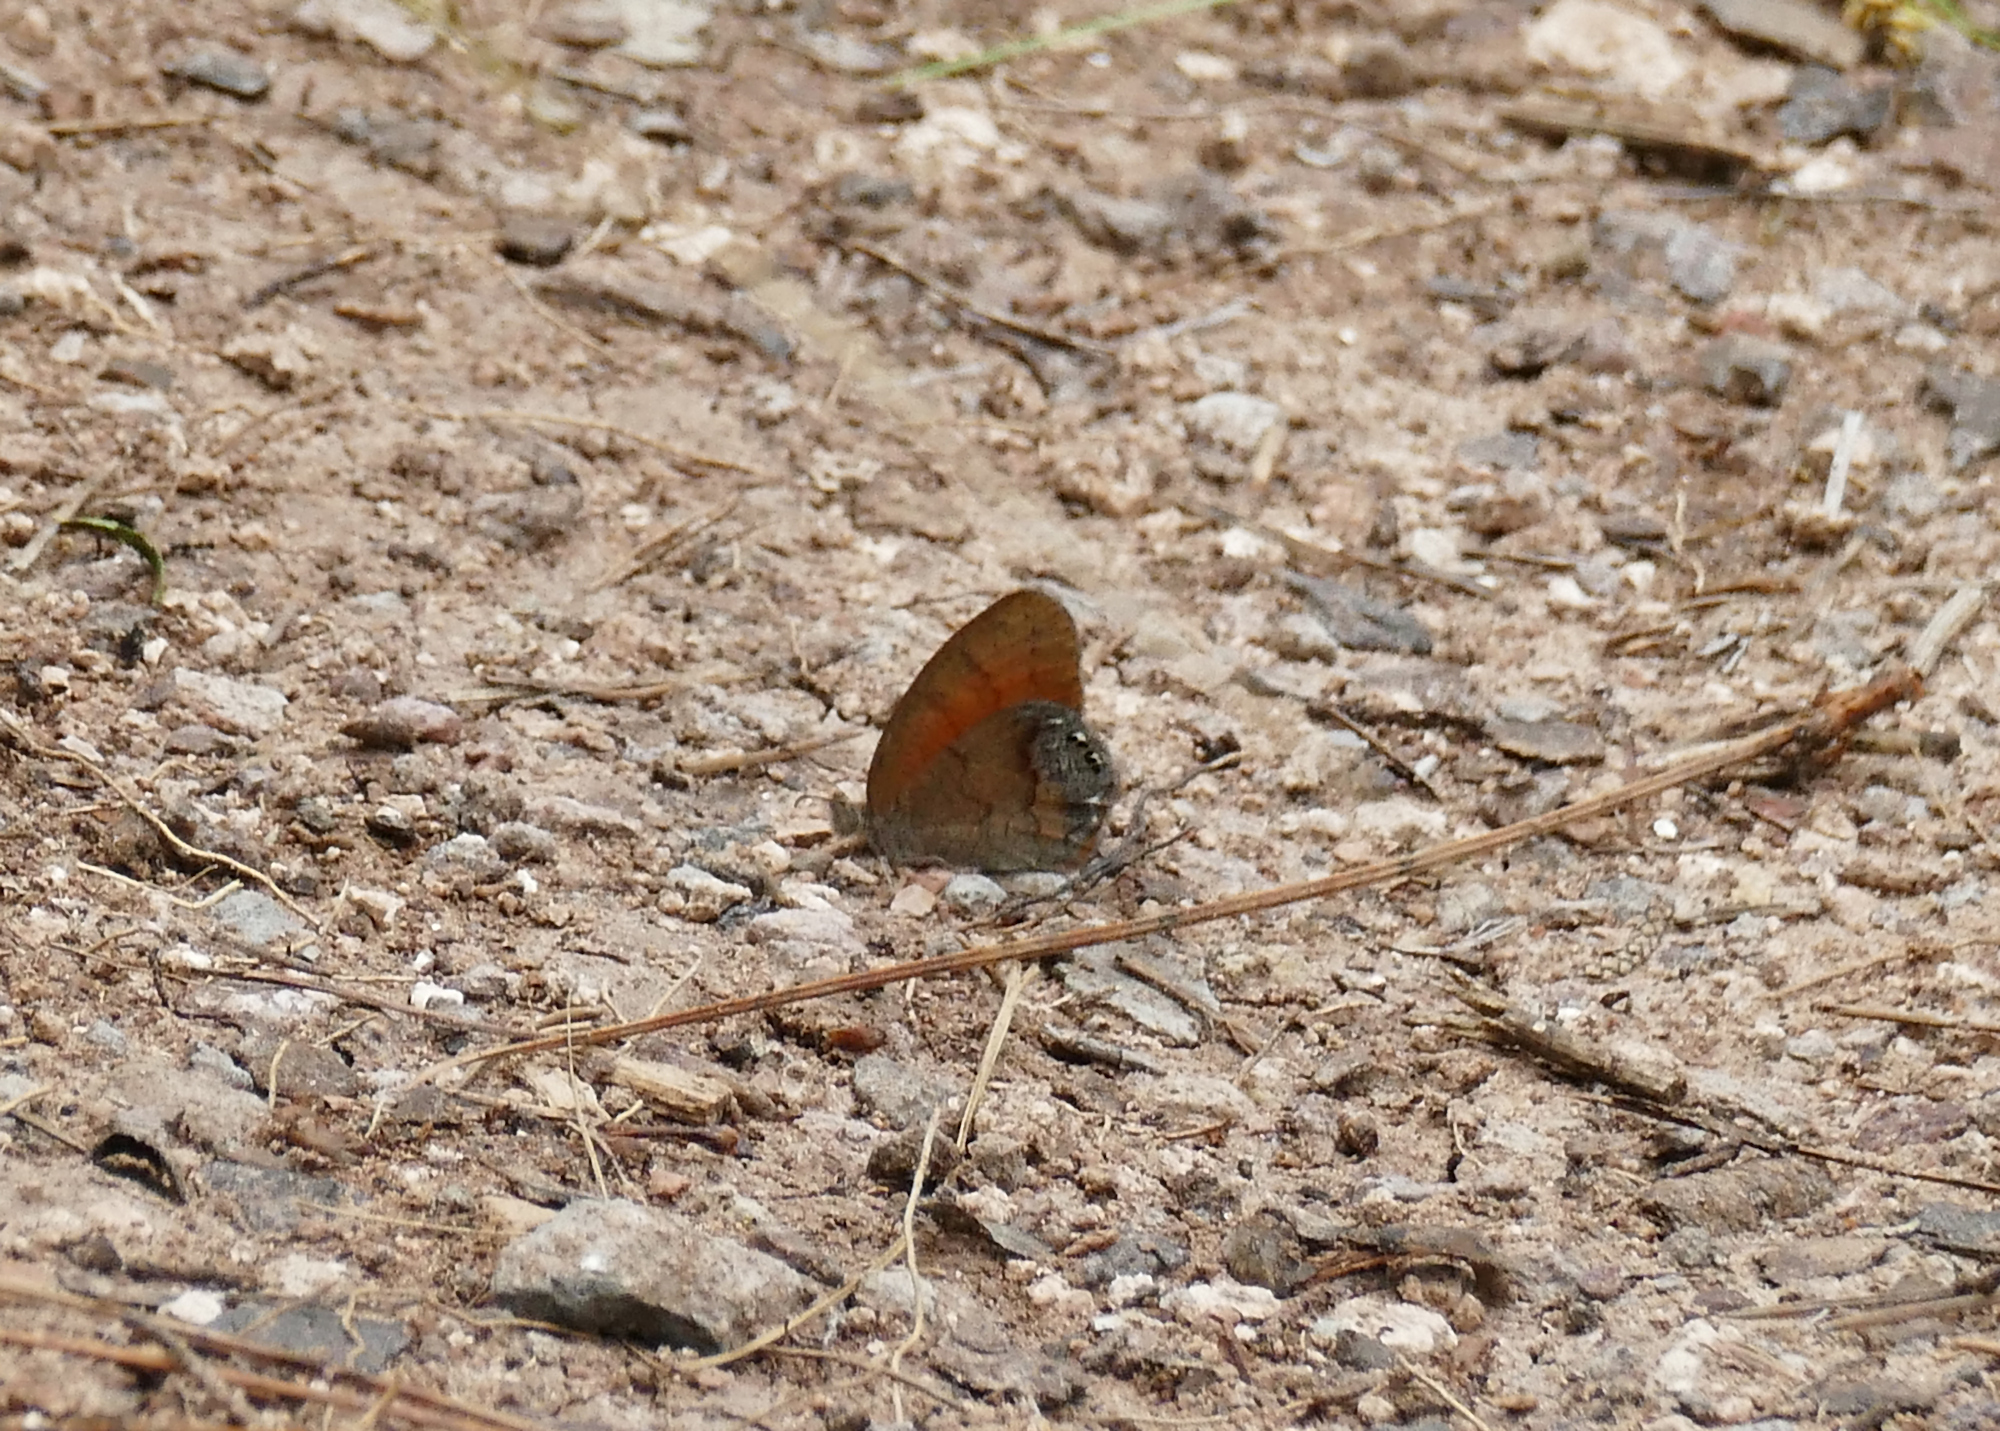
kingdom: Animalia
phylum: Arthropoda
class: Insecta
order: Lepidoptera
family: Nymphalidae
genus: Euptychia
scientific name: Euptychia Cyllopsis pertepida
